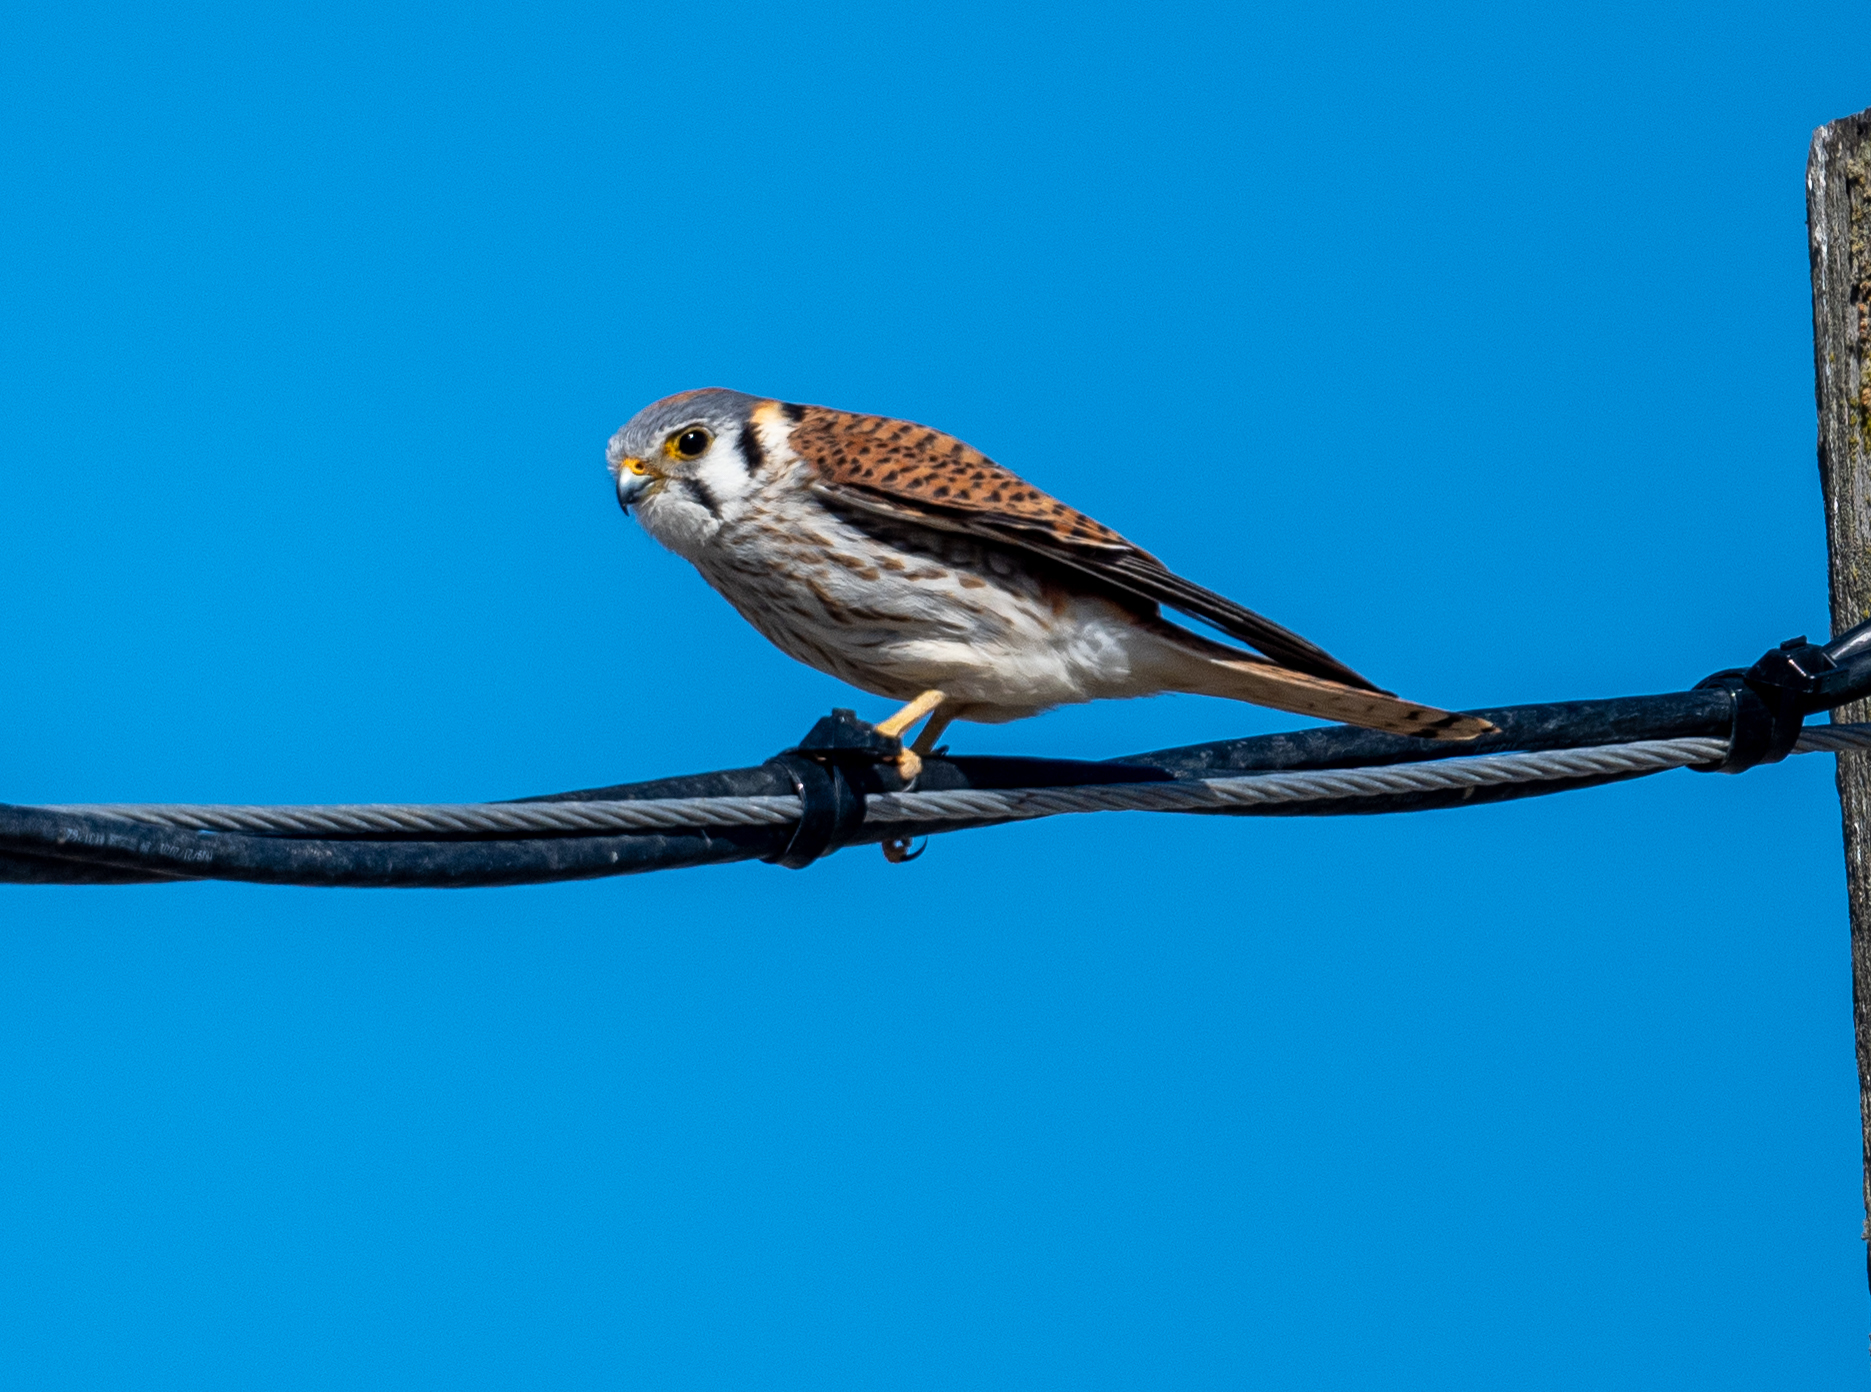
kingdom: Animalia
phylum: Chordata
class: Aves
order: Falconiformes
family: Falconidae
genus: Falco
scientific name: Falco sparverius
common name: American kestrel
